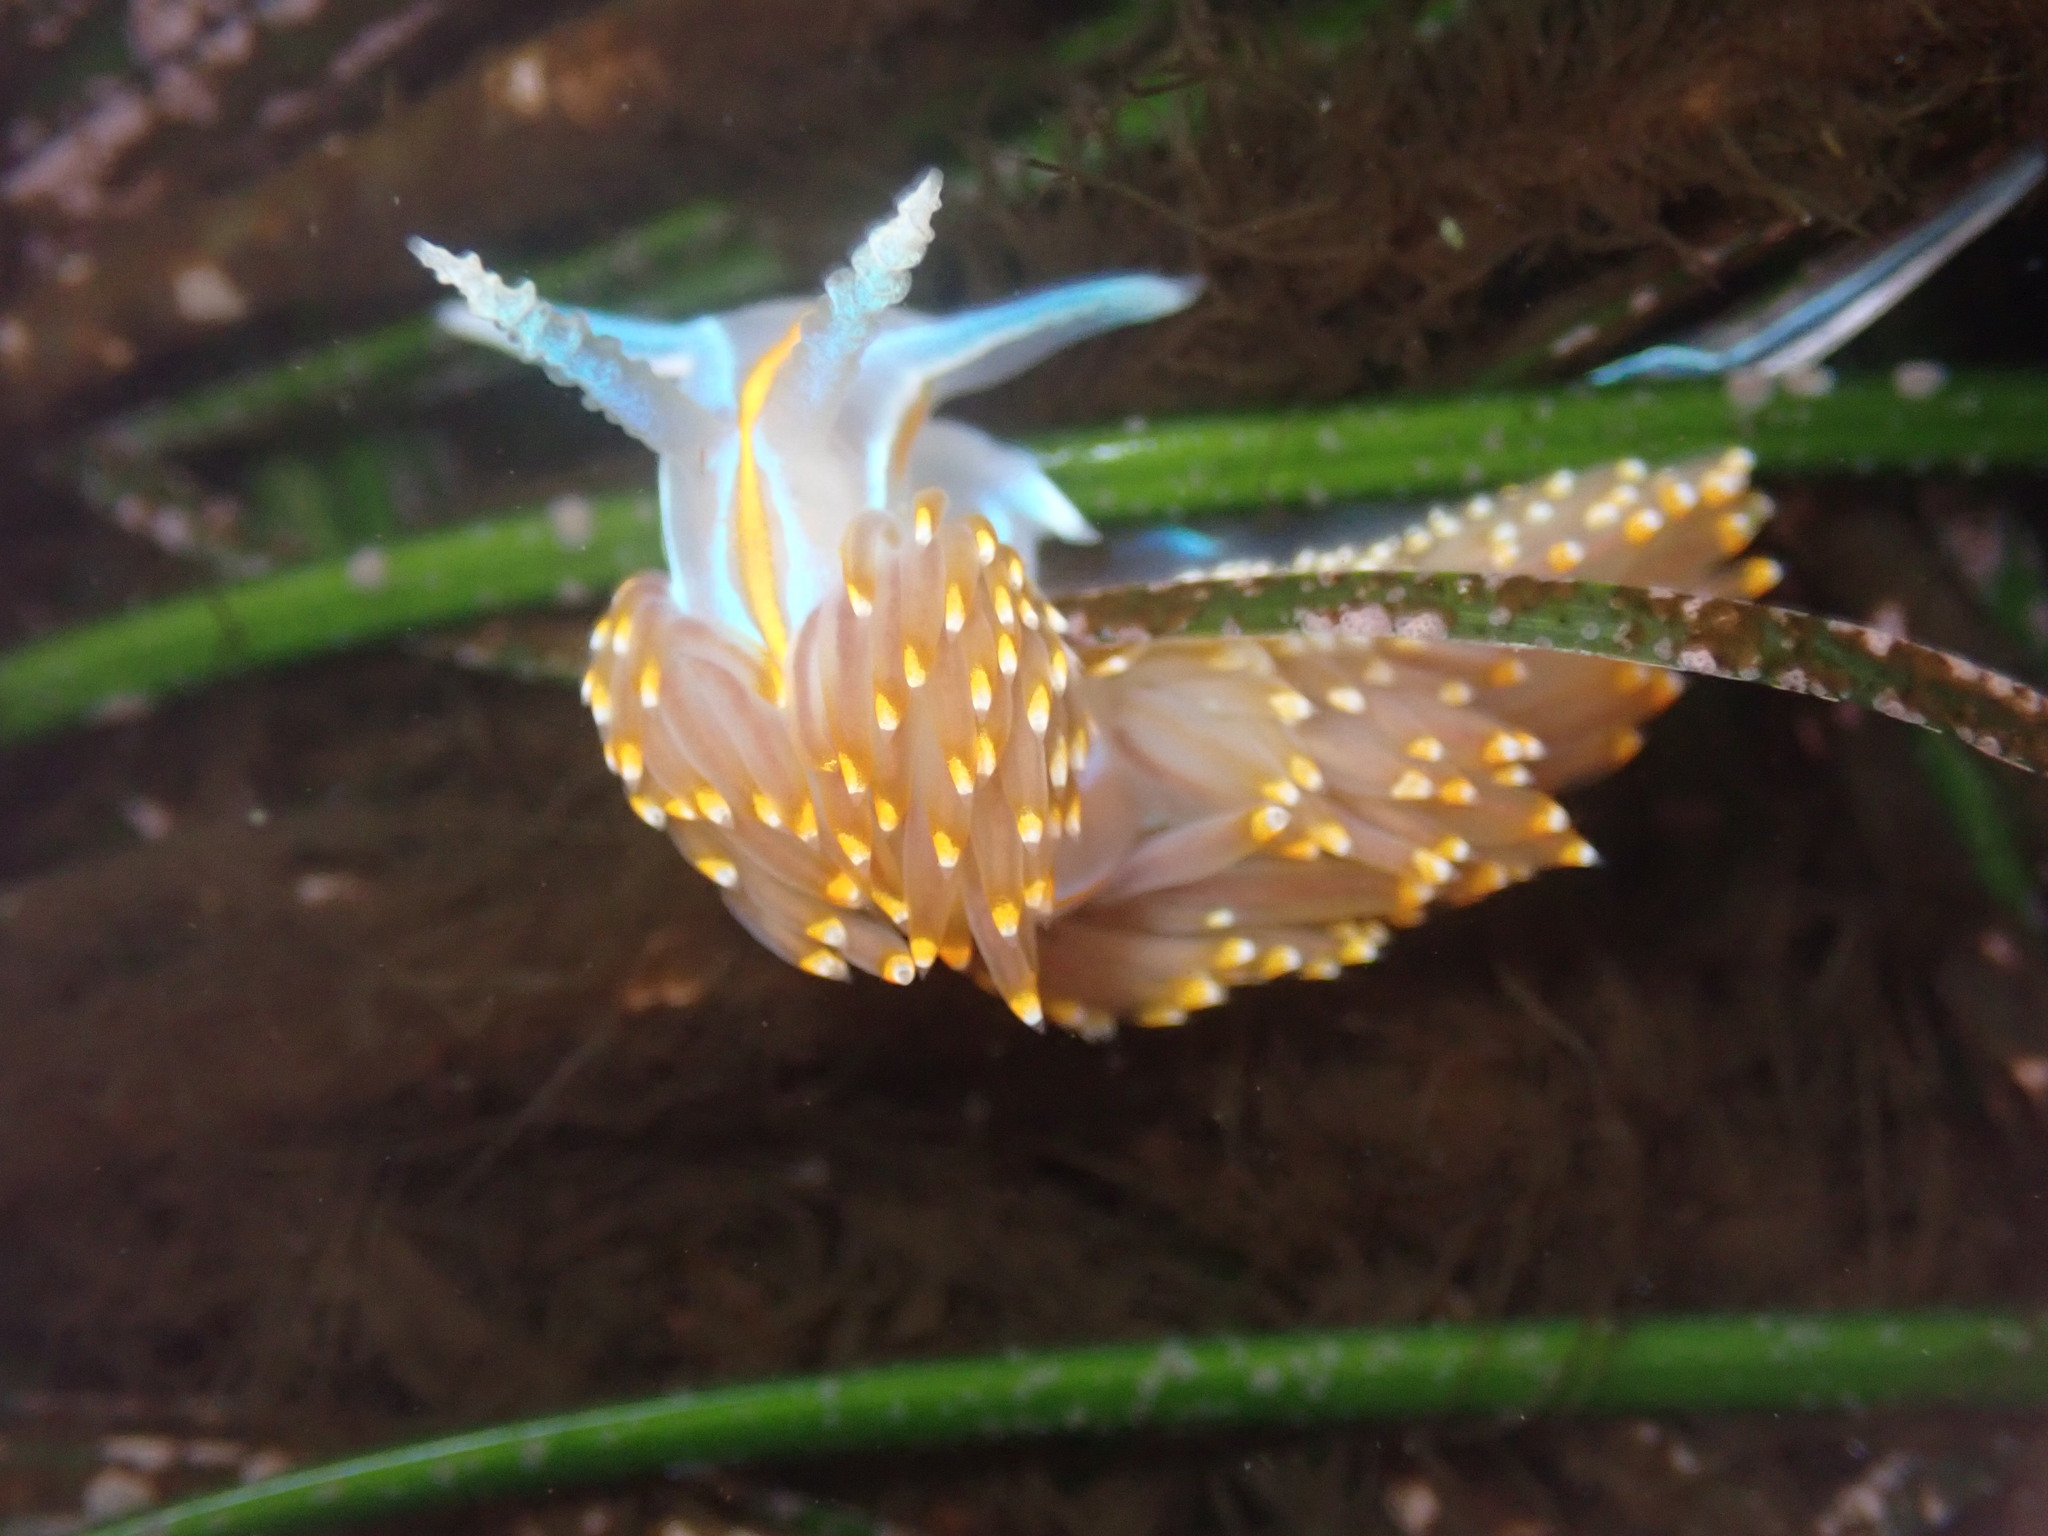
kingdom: Animalia
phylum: Mollusca
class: Gastropoda
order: Nudibranchia
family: Myrrhinidae
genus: Hermissenda
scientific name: Hermissenda opalescens
